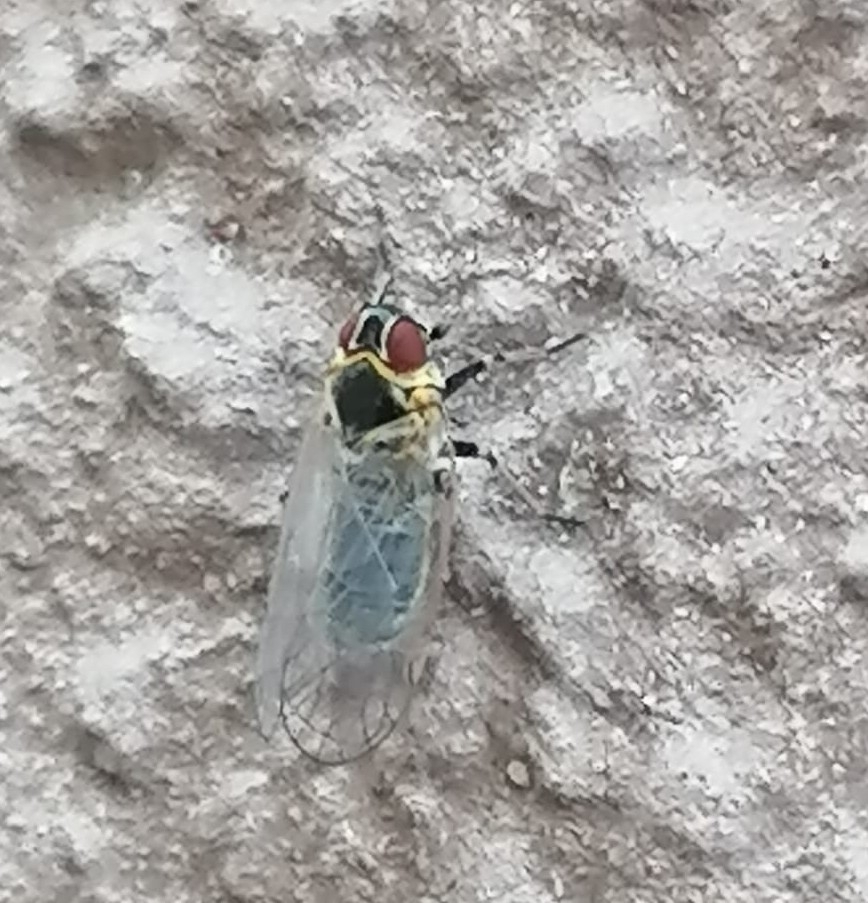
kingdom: Animalia
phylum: Arthropoda
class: Insecta
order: Hemiptera
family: Cixiidae
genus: Hyalesthes
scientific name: Hyalesthes obsoletus
